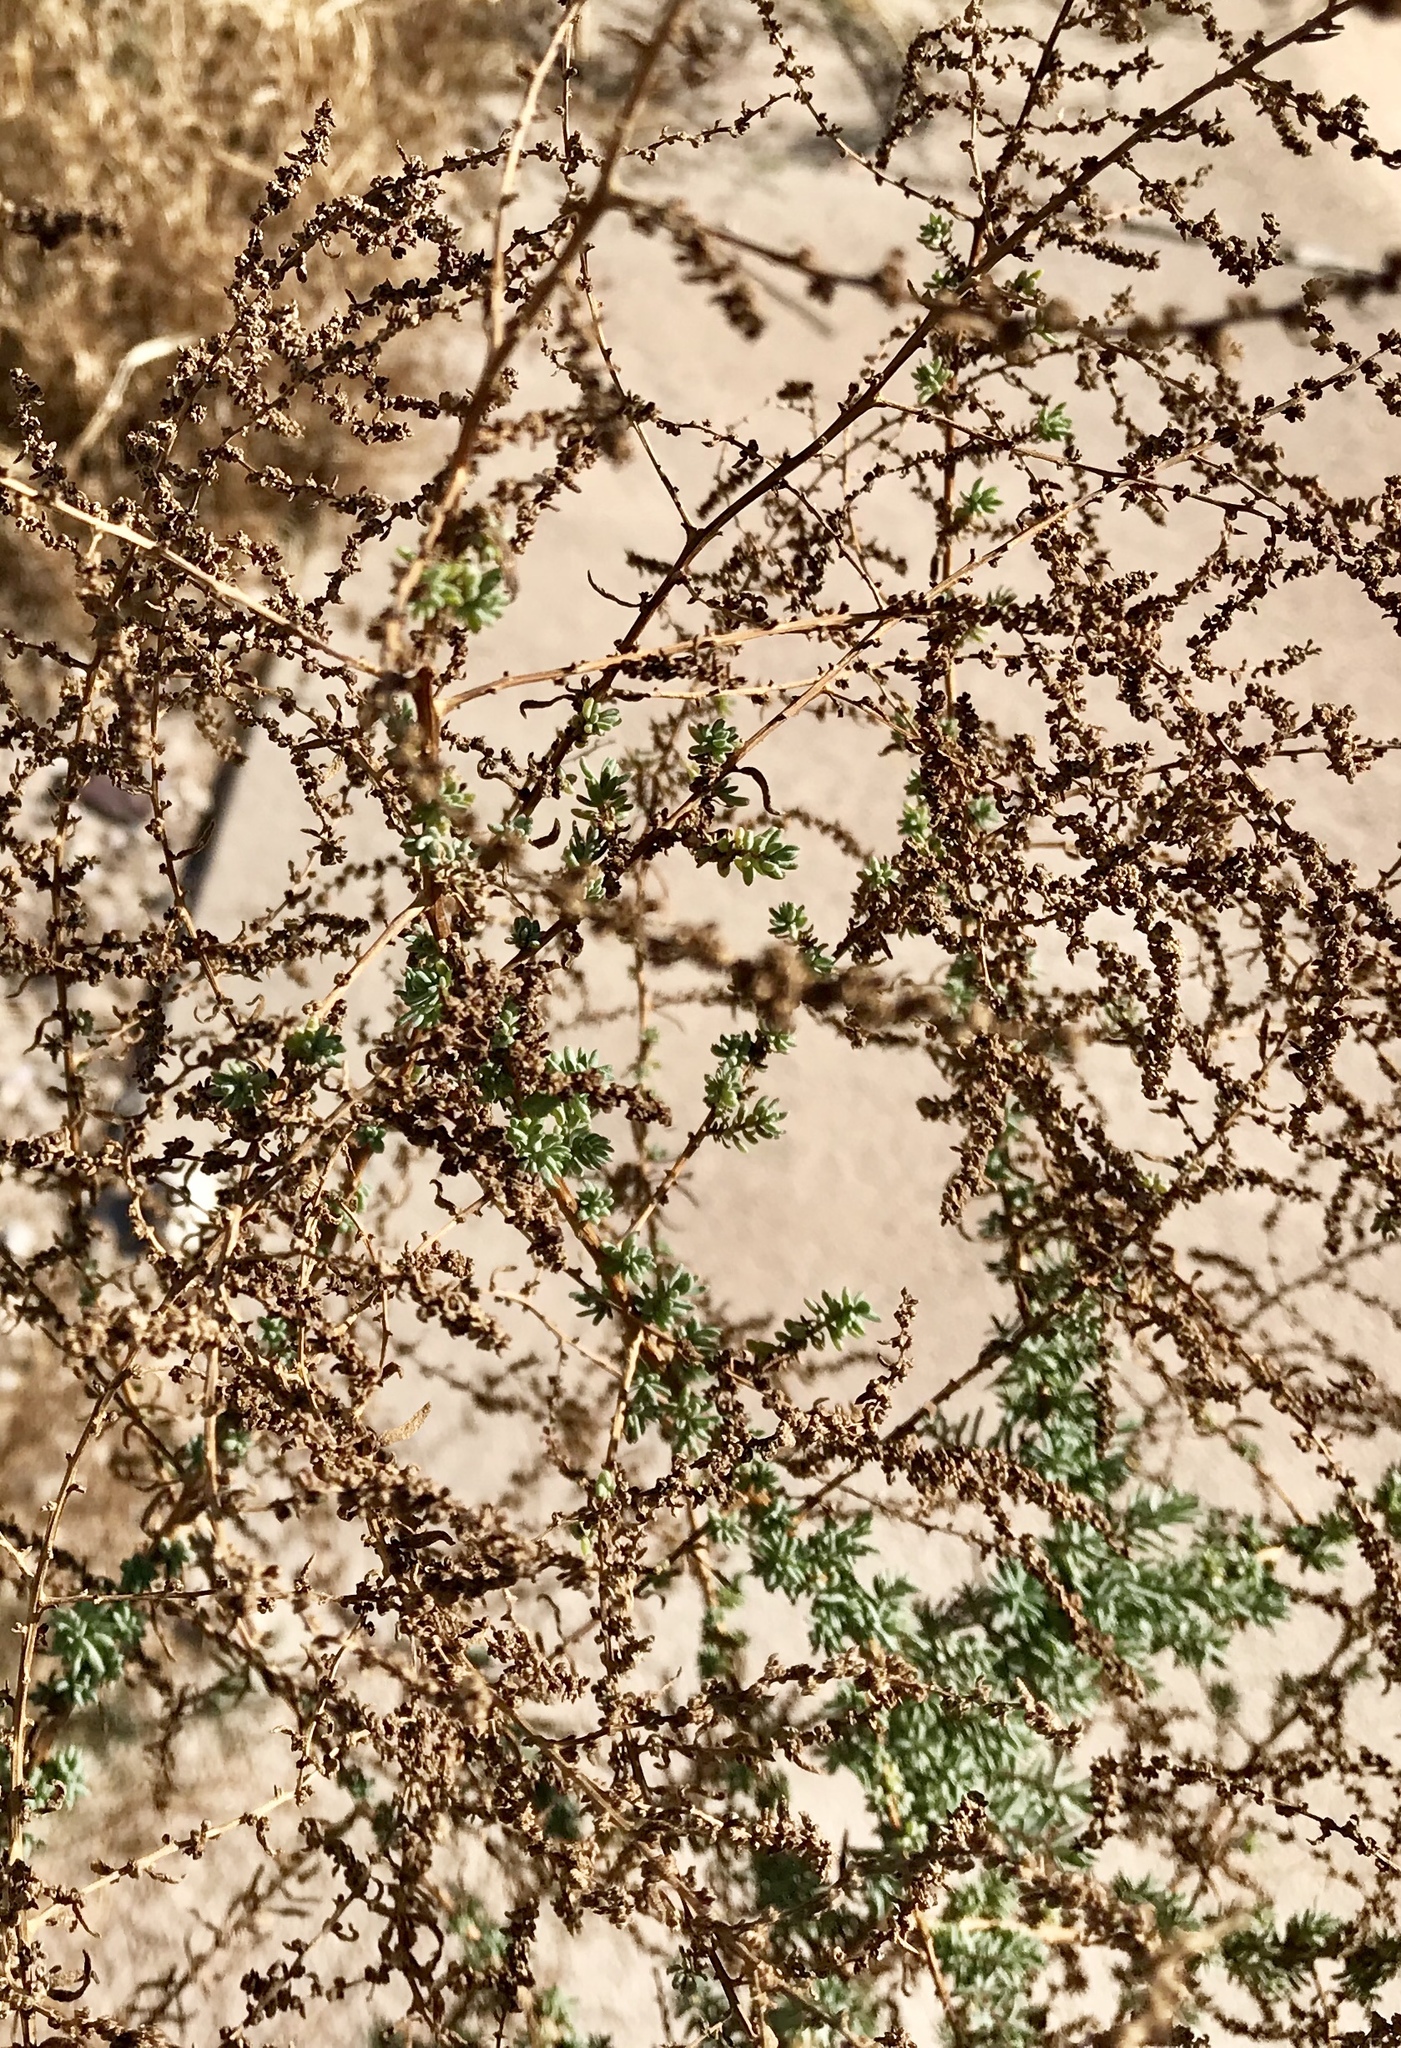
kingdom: Plantae
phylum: Tracheophyta
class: Magnoliopsida
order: Caryophyllales
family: Amaranthaceae
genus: Suaeda
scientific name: Suaeda nigra
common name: Bush seepweed
